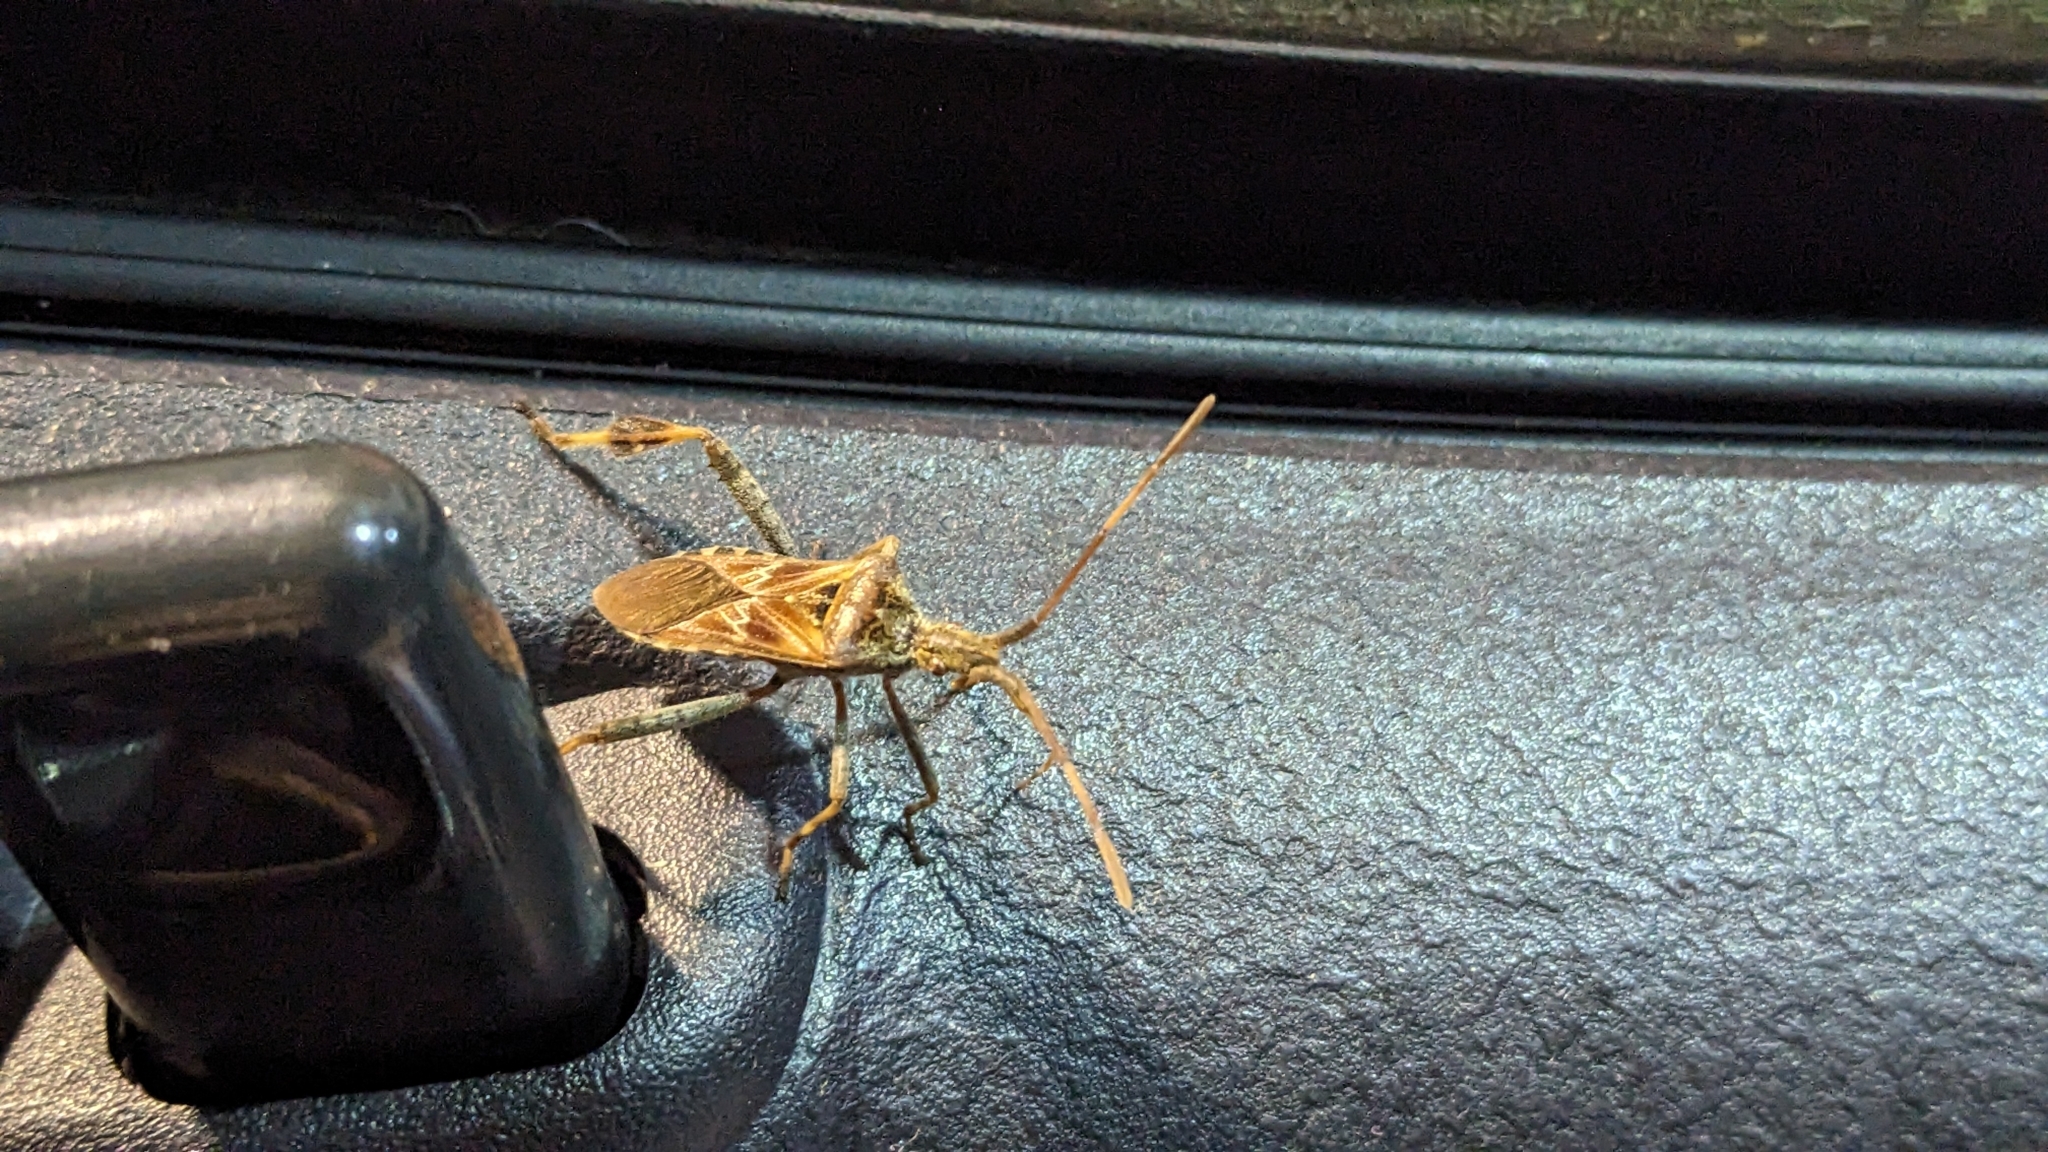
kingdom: Animalia
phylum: Arthropoda
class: Insecta
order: Hemiptera
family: Coreidae
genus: Leptoglossus
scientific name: Leptoglossus occidentalis
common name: Western conifer-seed bug
